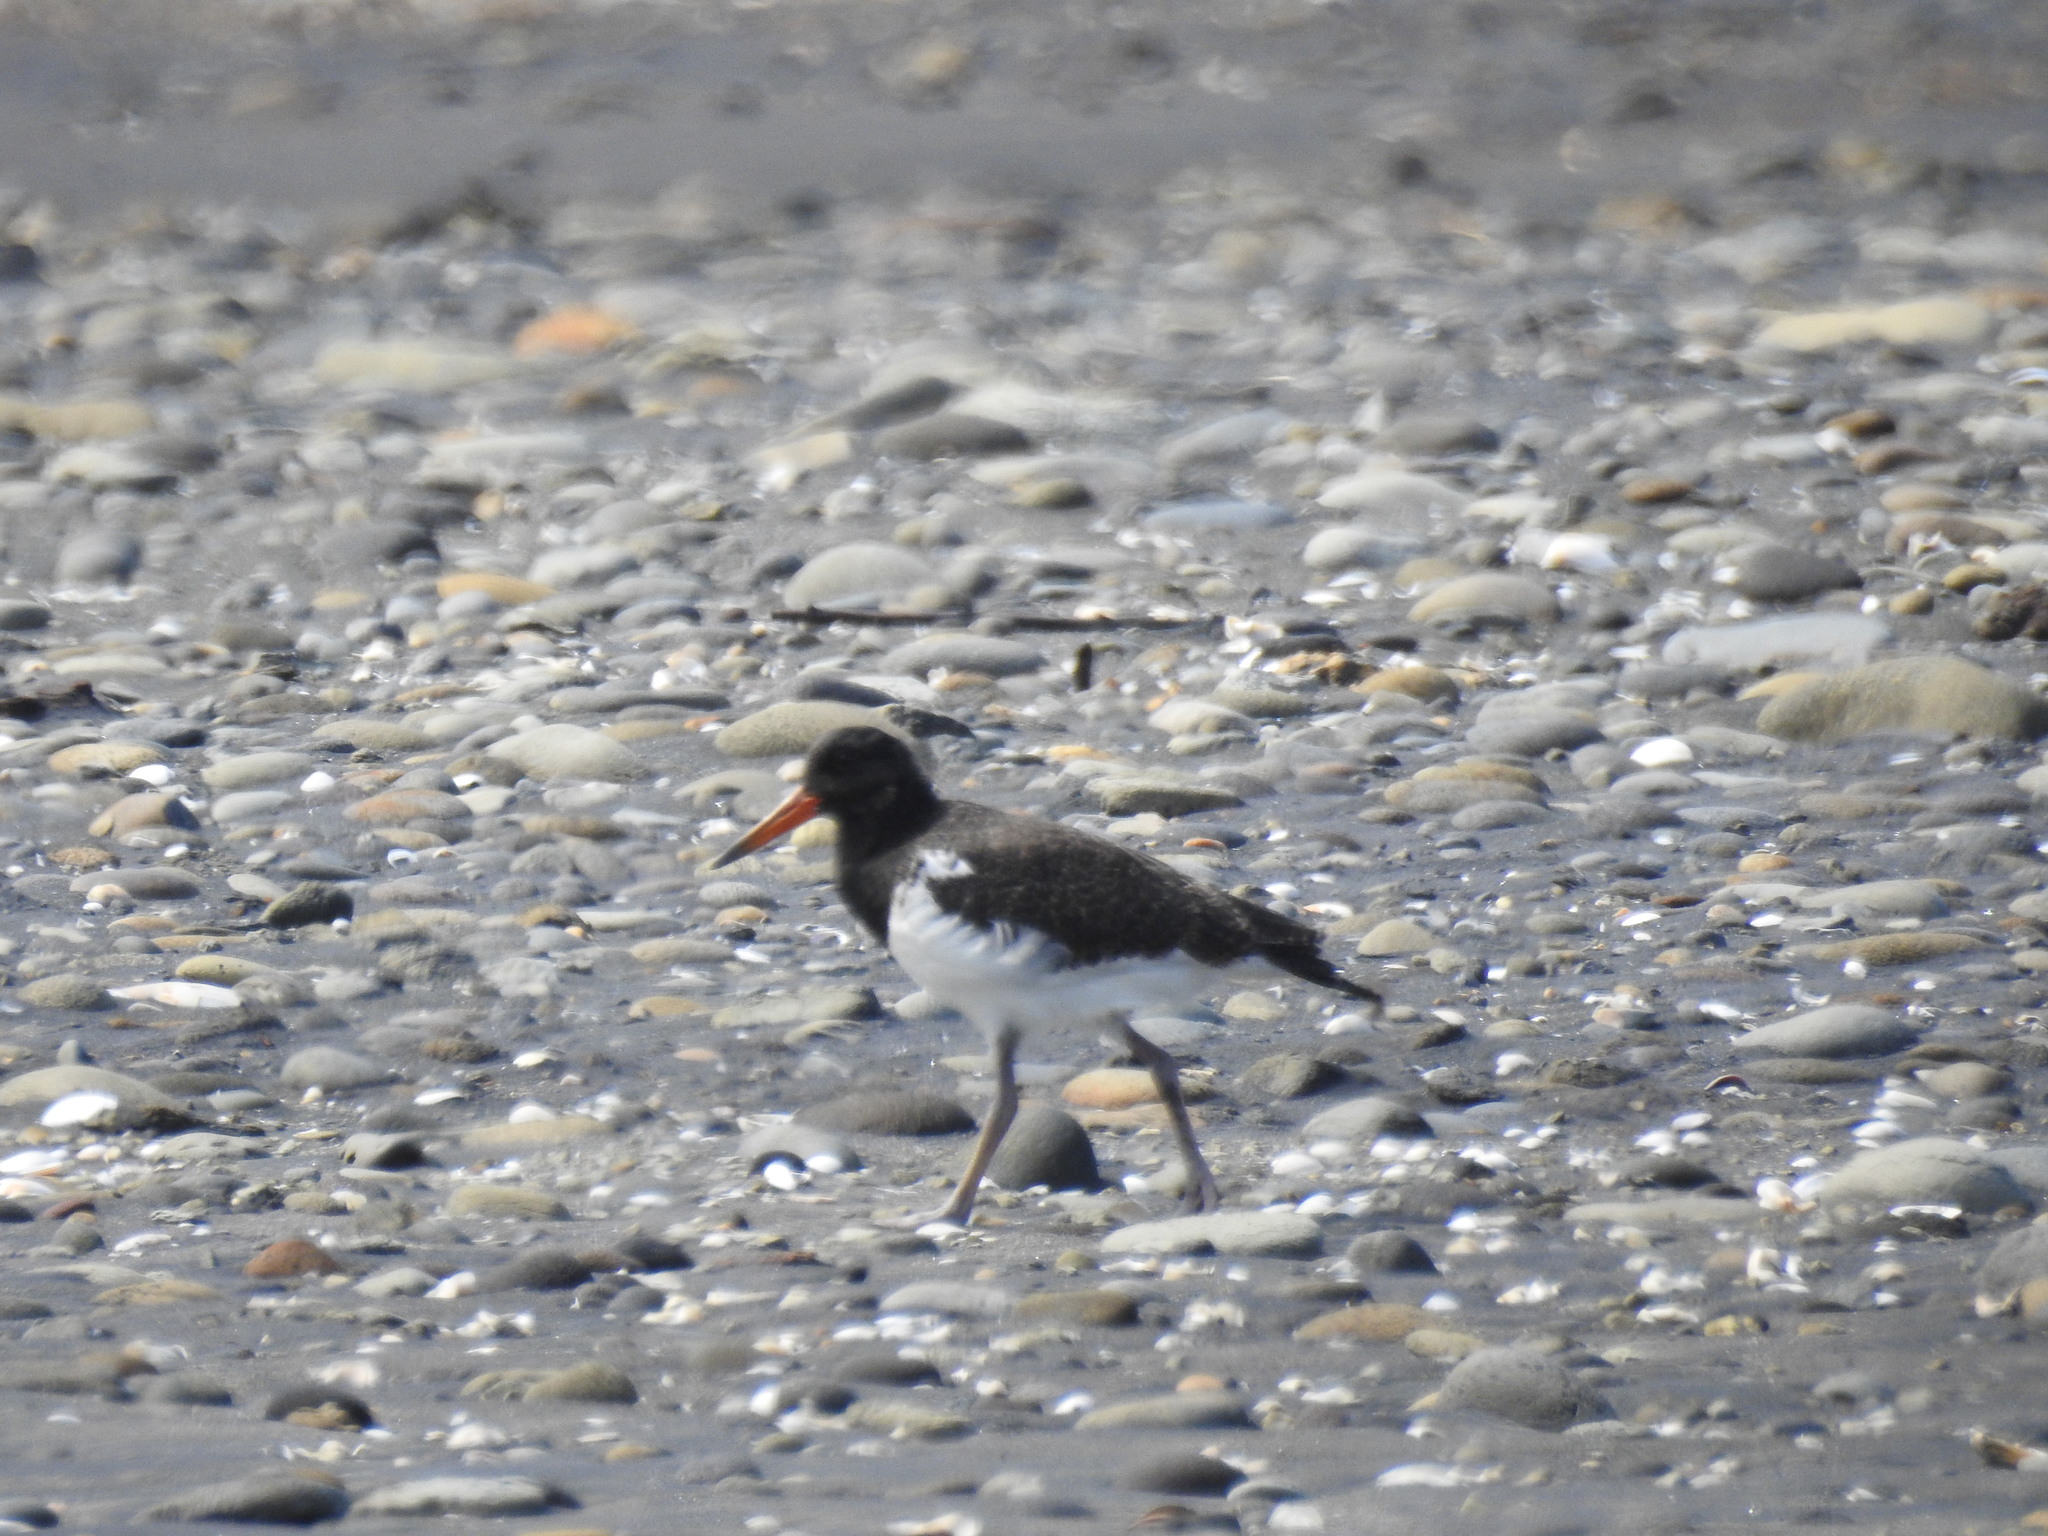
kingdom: Animalia
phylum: Chordata
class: Aves
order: Charadriiformes
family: Haematopodidae
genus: Haematopus
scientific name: Haematopus unicolor
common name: Variable oystercatcher
